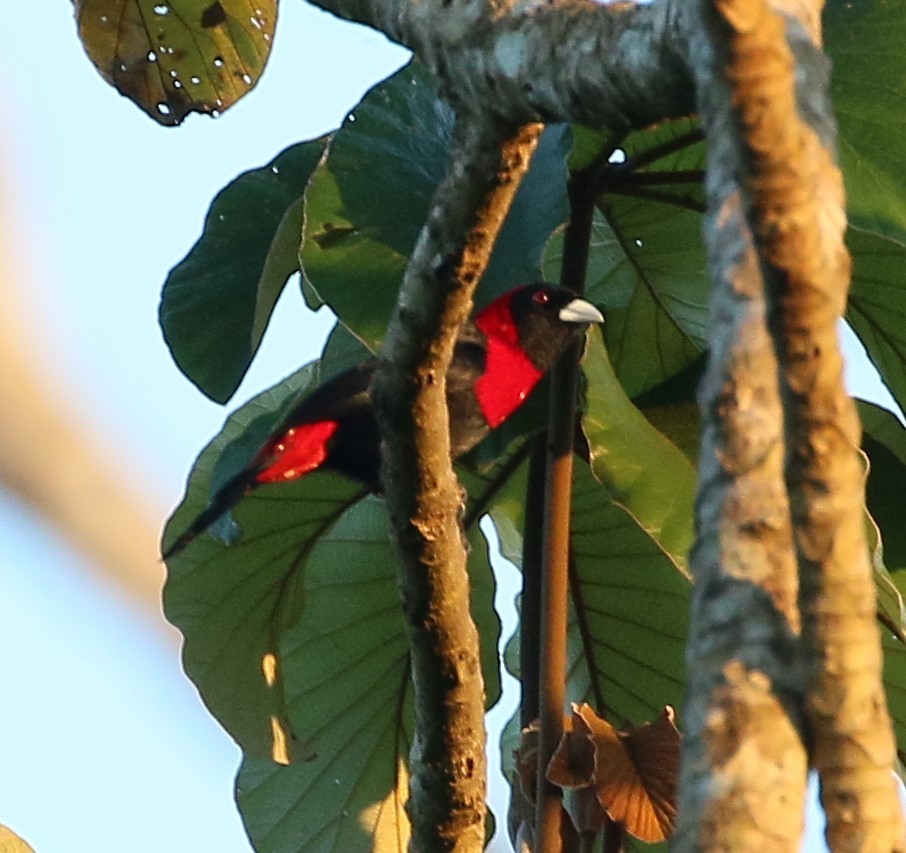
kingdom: Animalia
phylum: Chordata
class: Aves
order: Passeriformes
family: Thraupidae
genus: Ramphocelus
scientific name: Ramphocelus sanguinolentus
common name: Crimson-collared tanager
